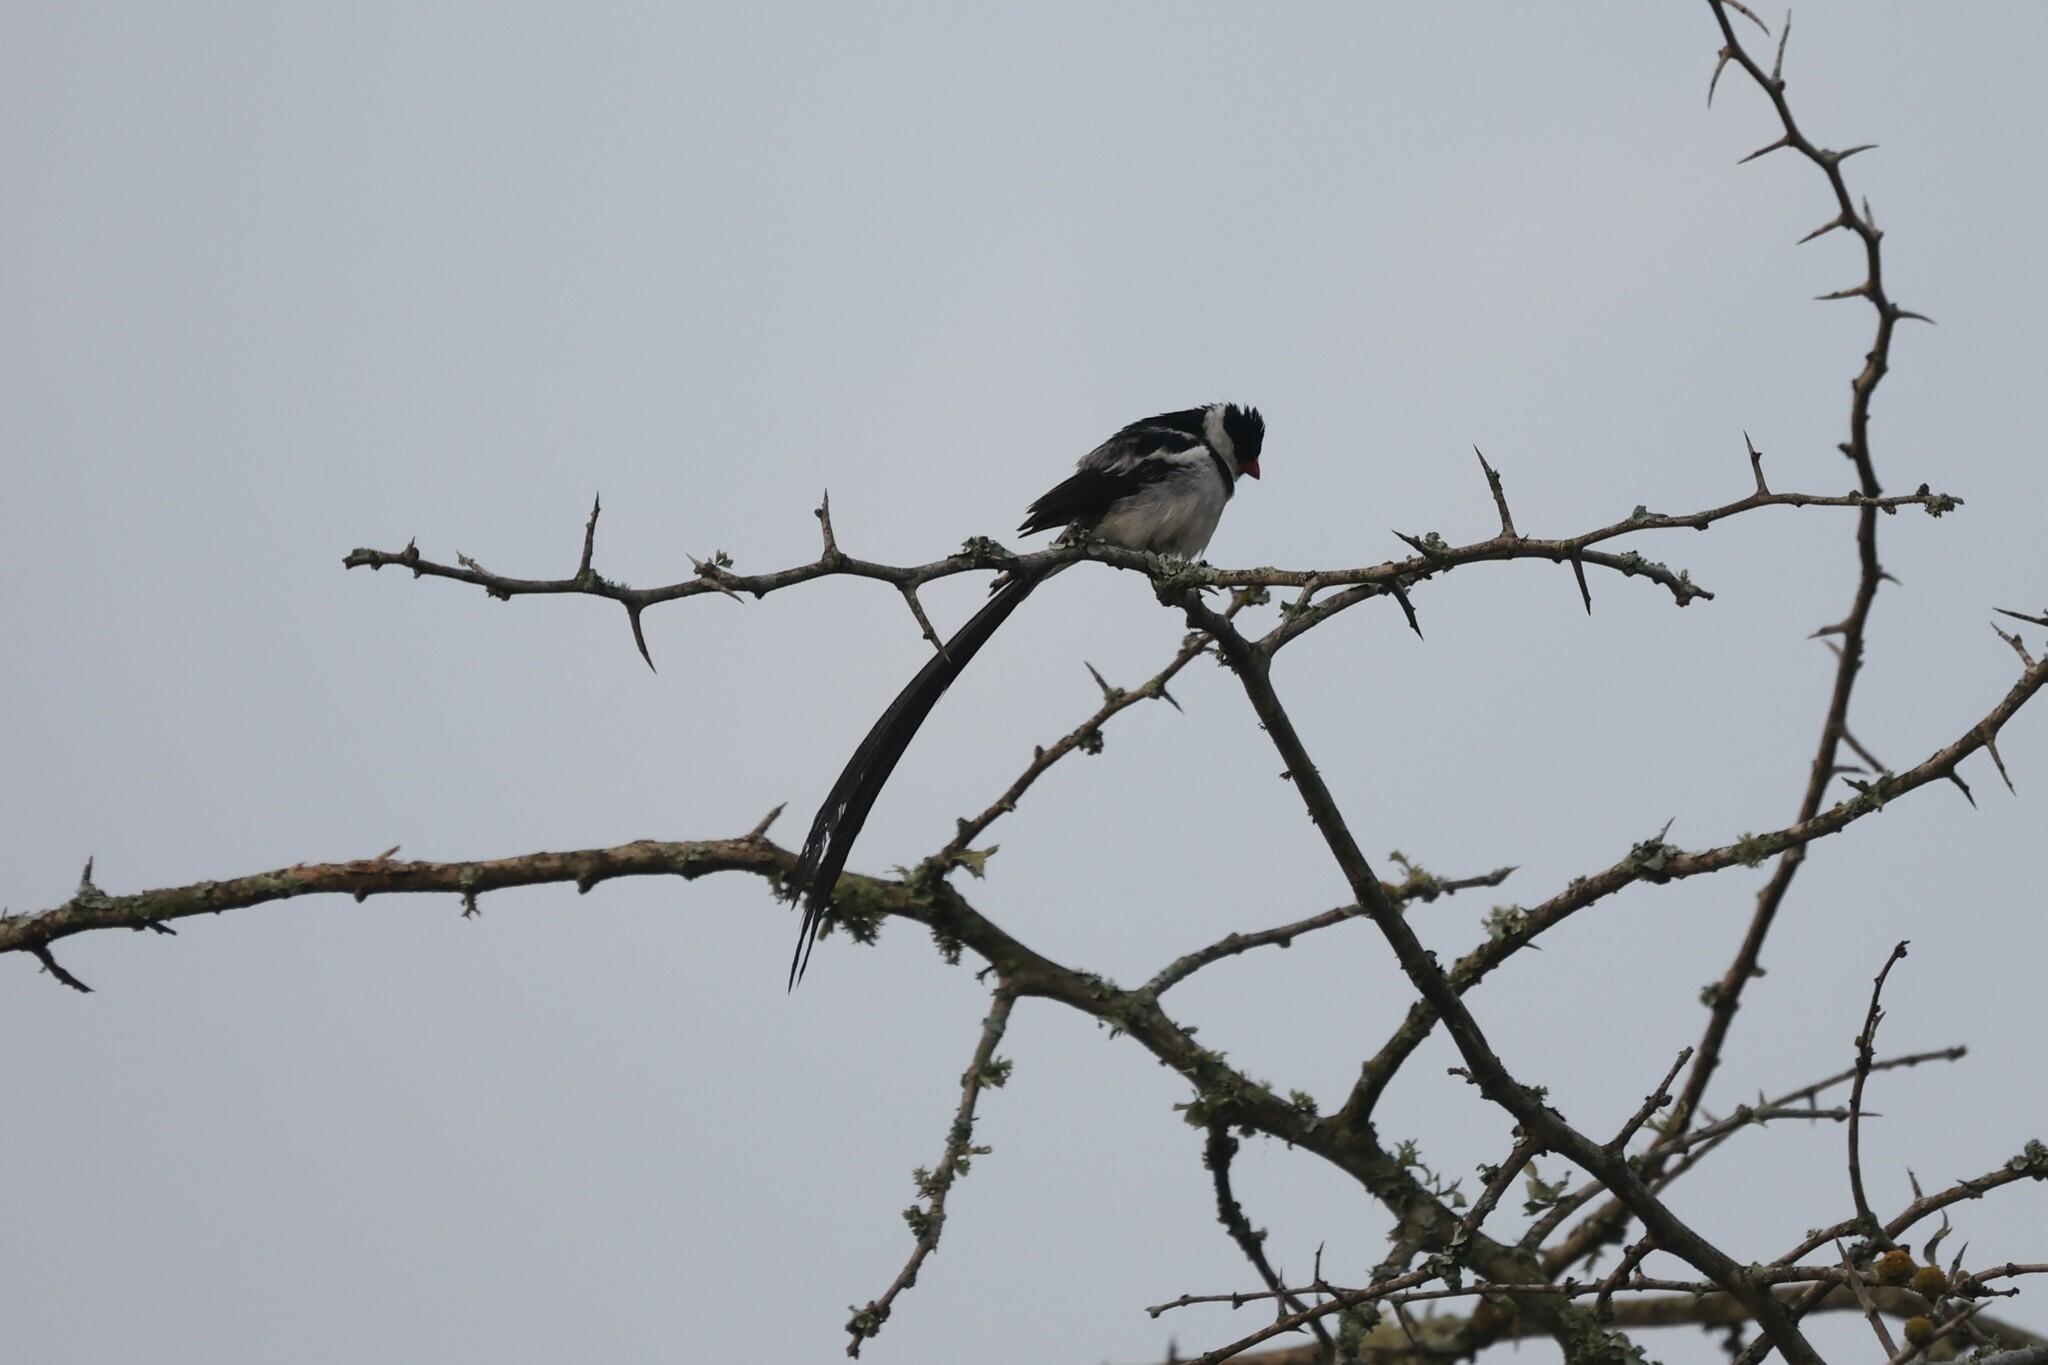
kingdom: Animalia
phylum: Chordata
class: Aves
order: Passeriformes
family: Viduidae
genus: Vidua
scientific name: Vidua macroura
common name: Pin-tailed whydah
